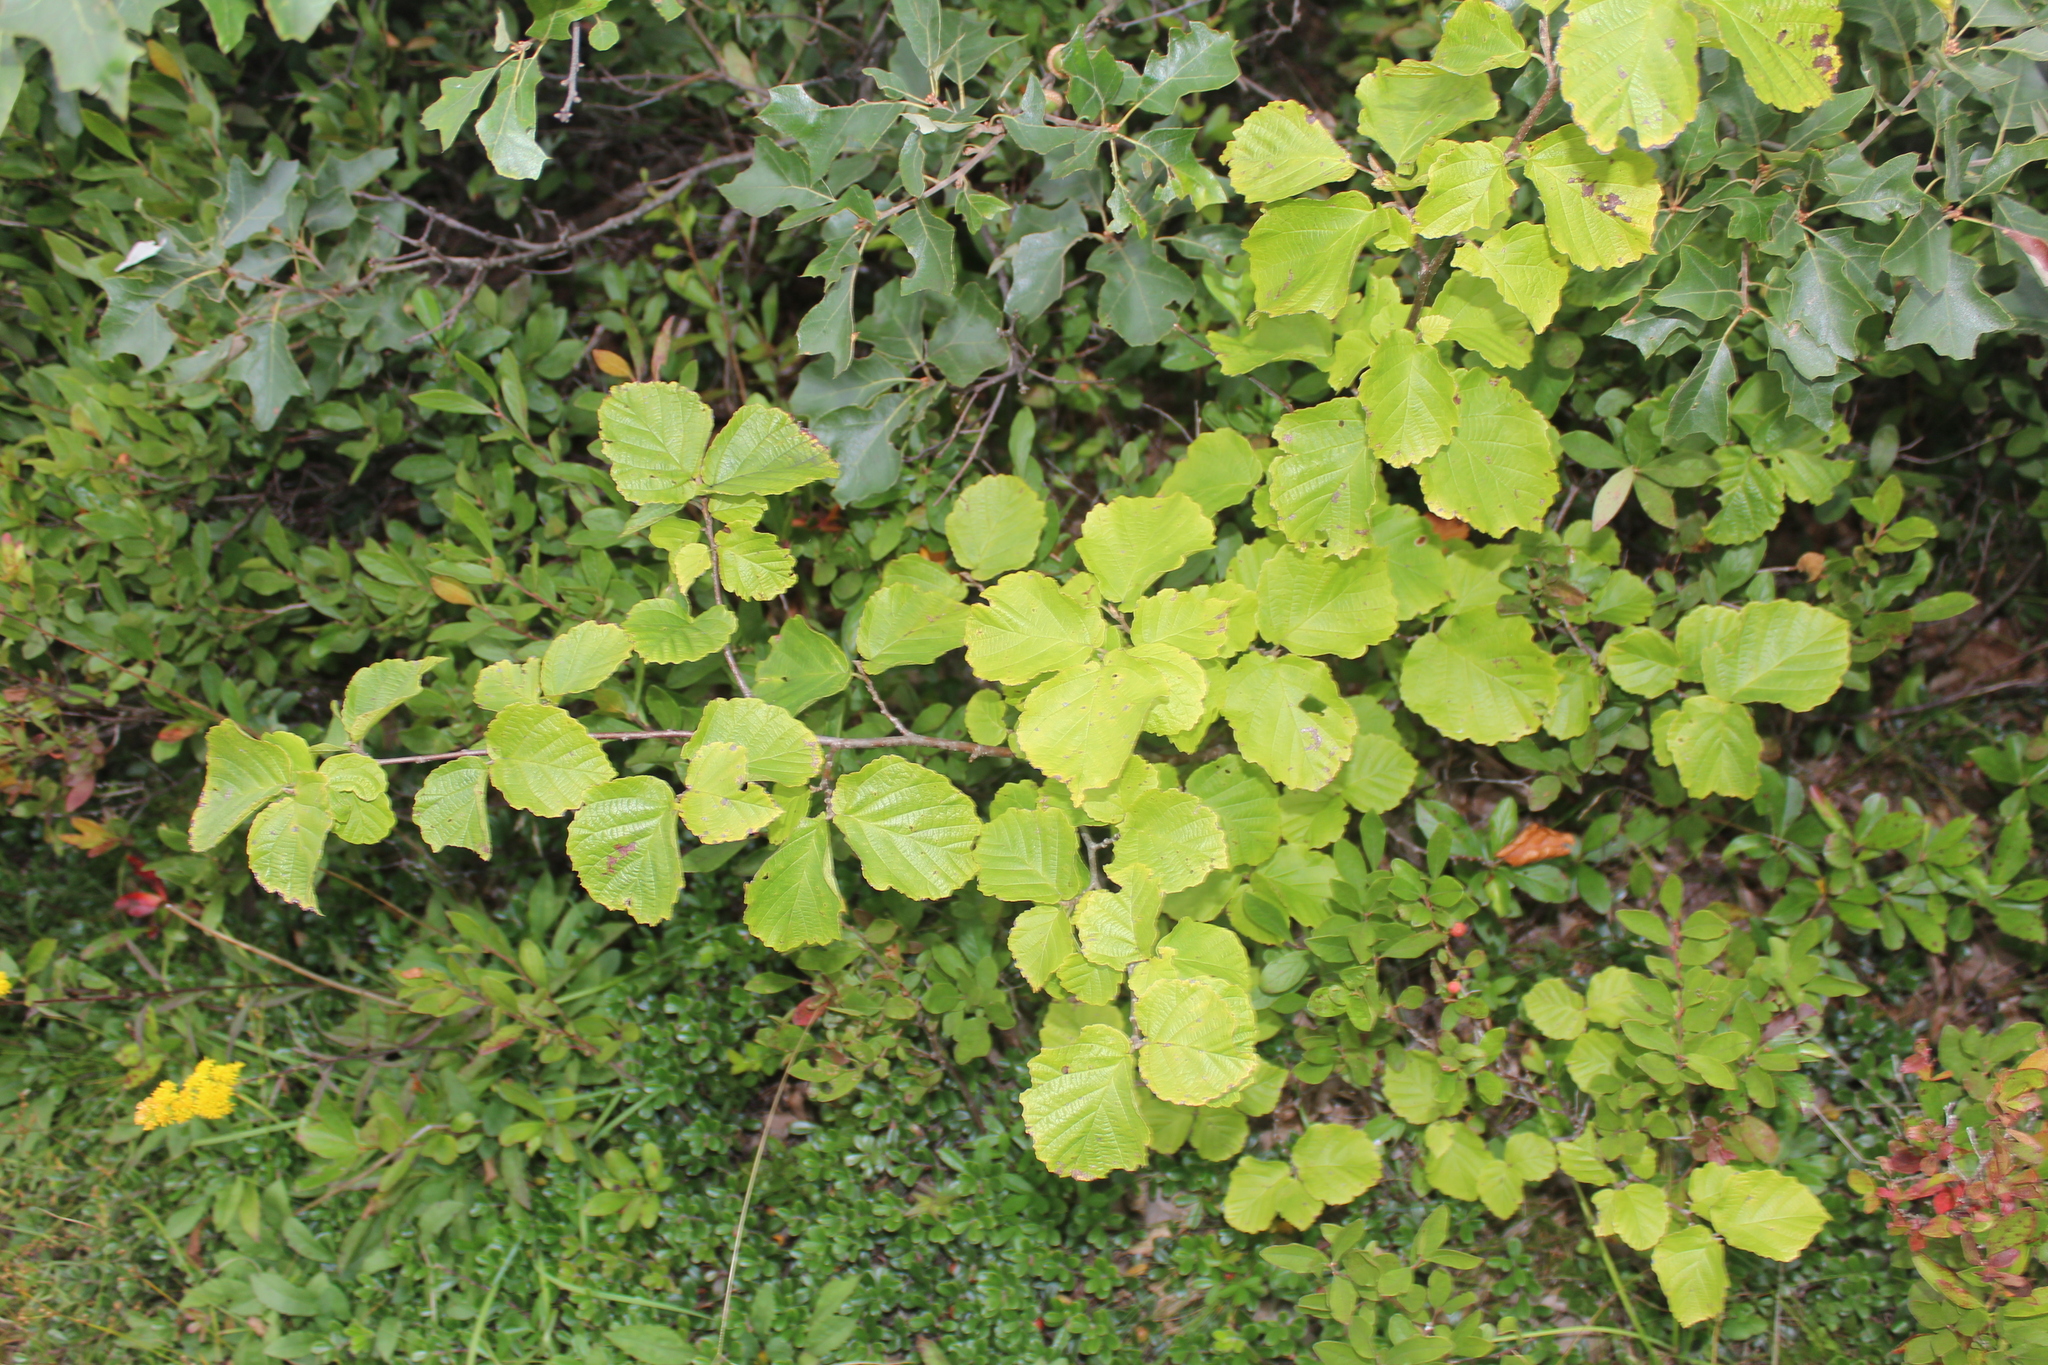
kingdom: Plantae
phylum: Tracheophyta
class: Magnoliopsida
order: Saxifragales
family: Hamamelidaceae
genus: Hamamelis
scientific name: Hamamelis virginiana
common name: Witch-hazel
